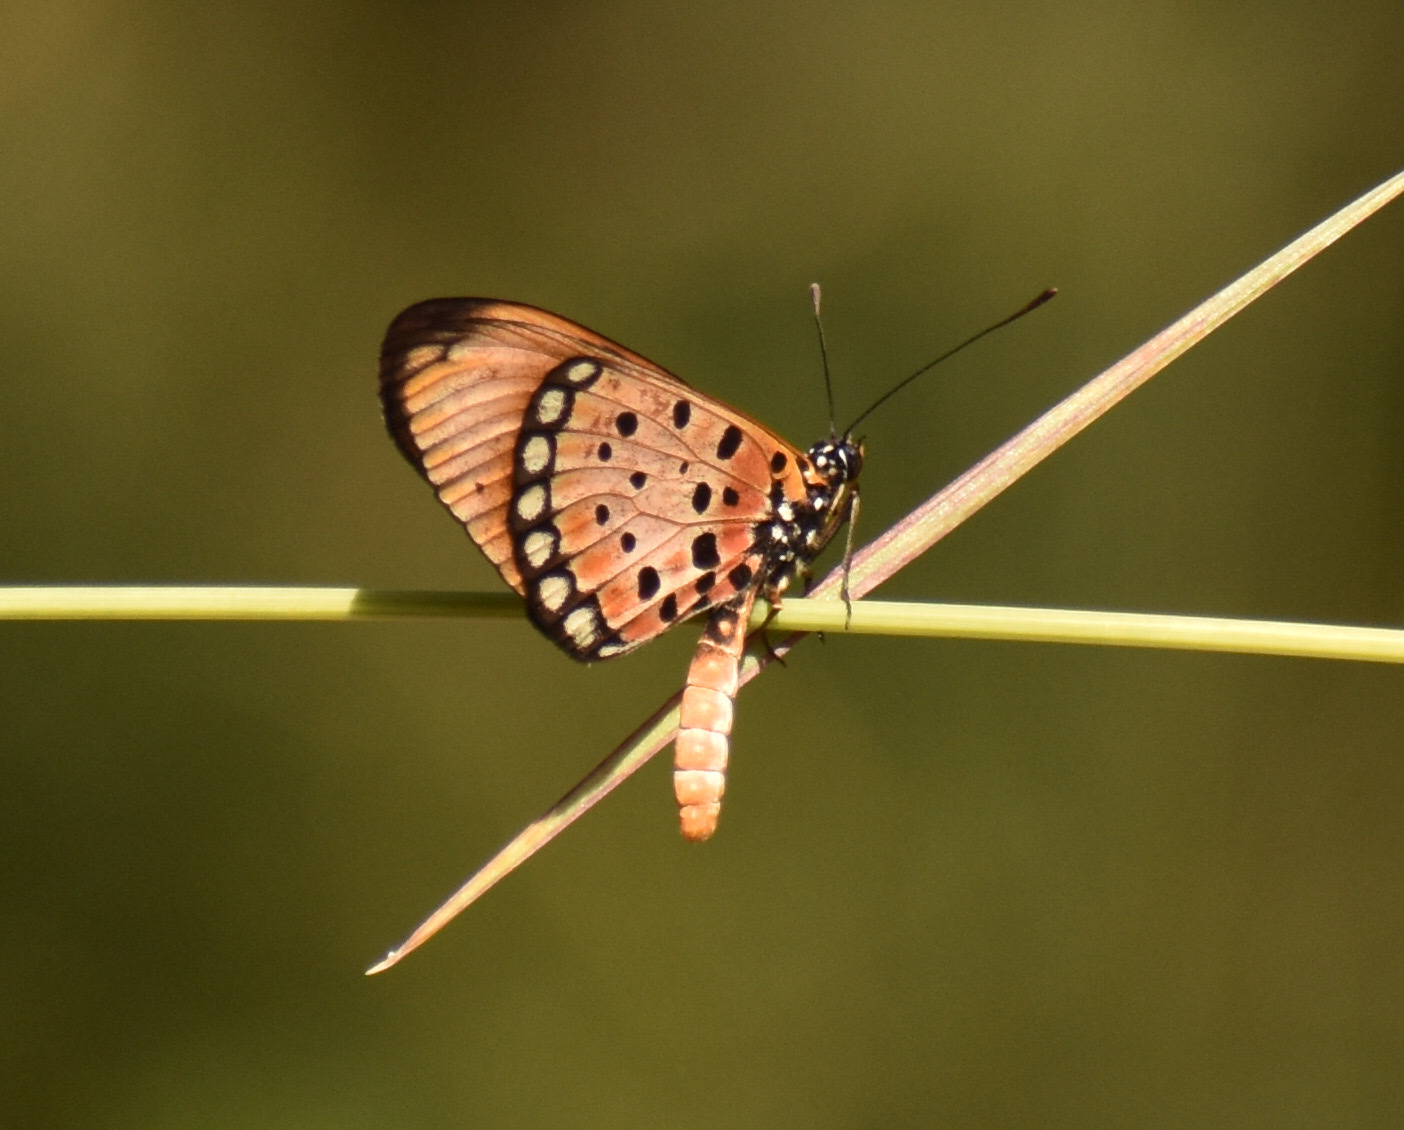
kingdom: Animalia
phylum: Arthropoda
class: Insecta
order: Lepidoptera
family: Nymphalidae
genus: Stephenia
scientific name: Stephenia
